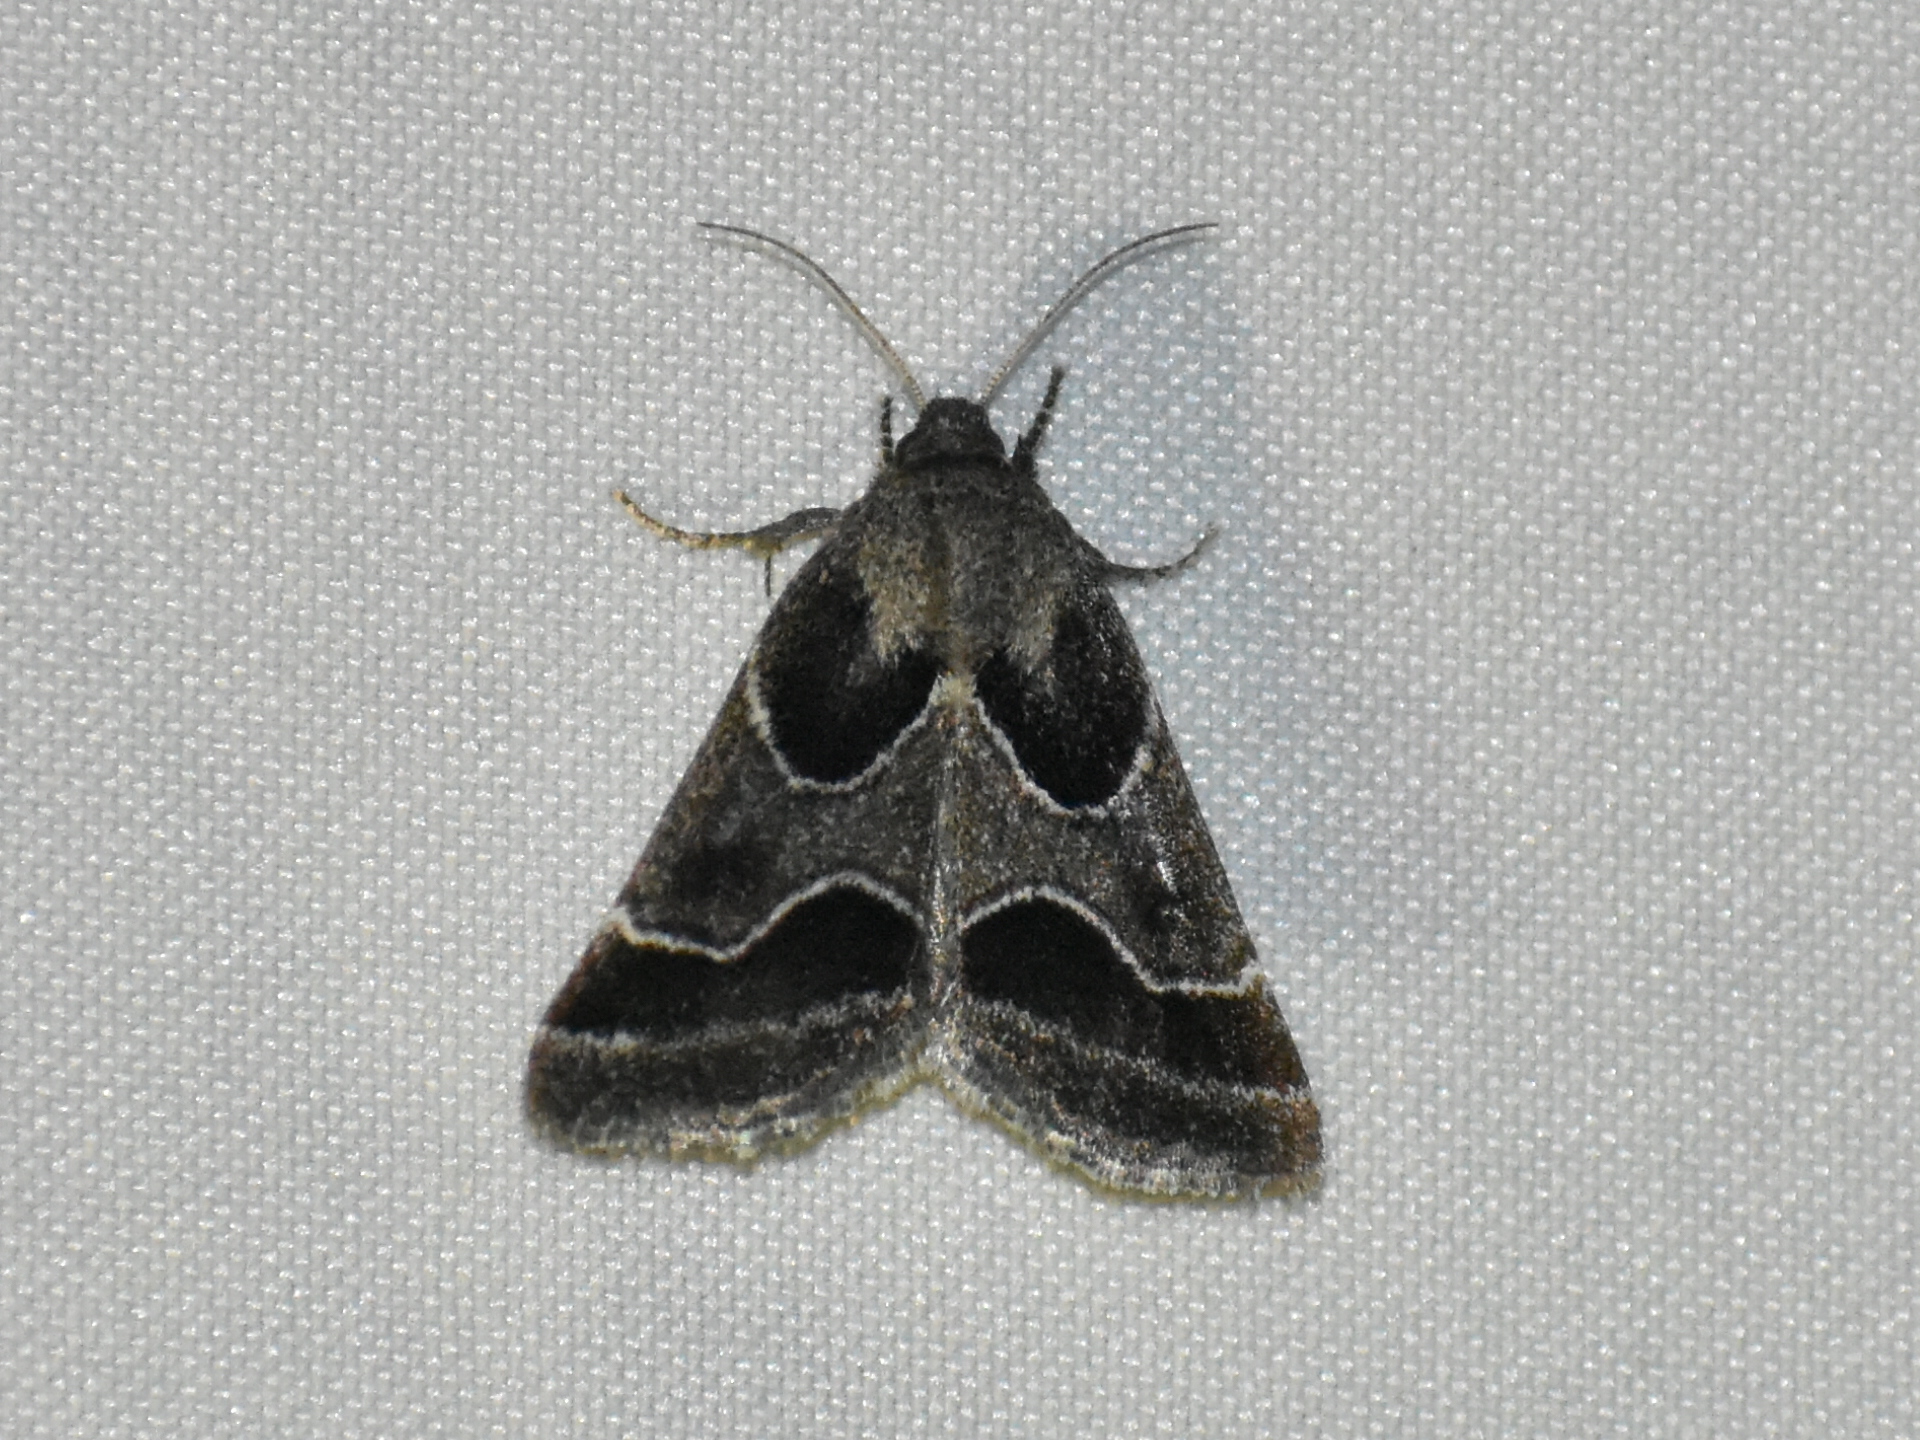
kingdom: Animalia
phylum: Arthropoda
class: Insecta
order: Lepidoptera
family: Noctuidae
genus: Schinia
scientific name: Schinia rivulosa
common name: Scarce meal-moth
